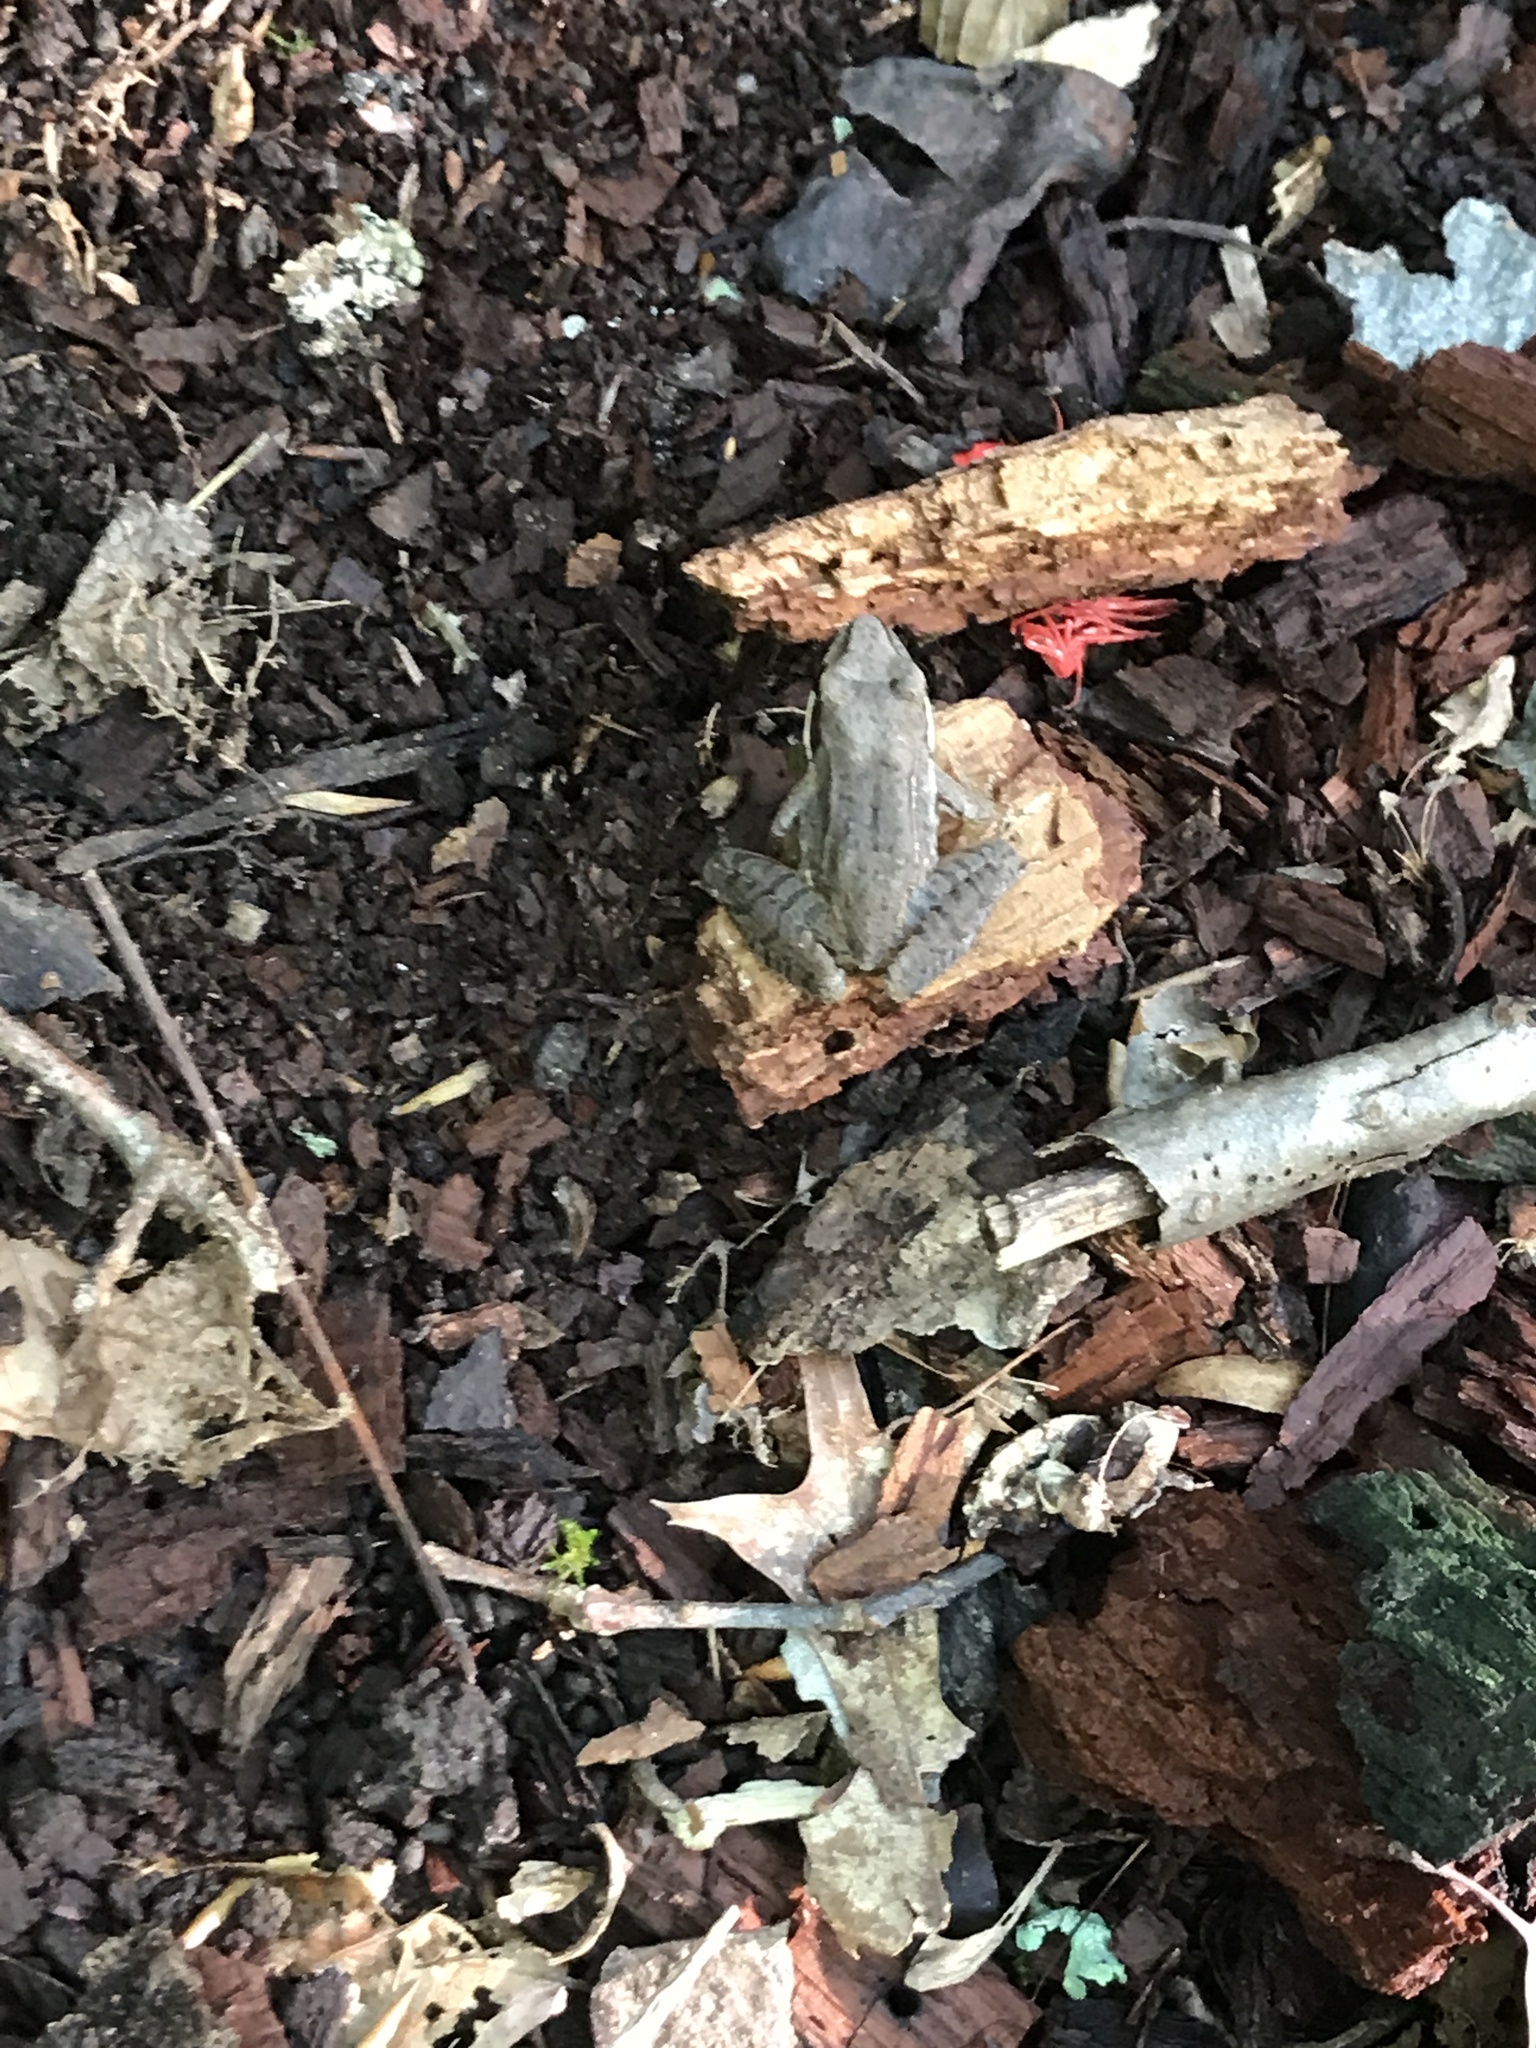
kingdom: Animalia
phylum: Chordata
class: Amphibia
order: Anura
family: Ranidae
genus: Lithobates
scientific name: Lithobates sylvaticus
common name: Wood frog
